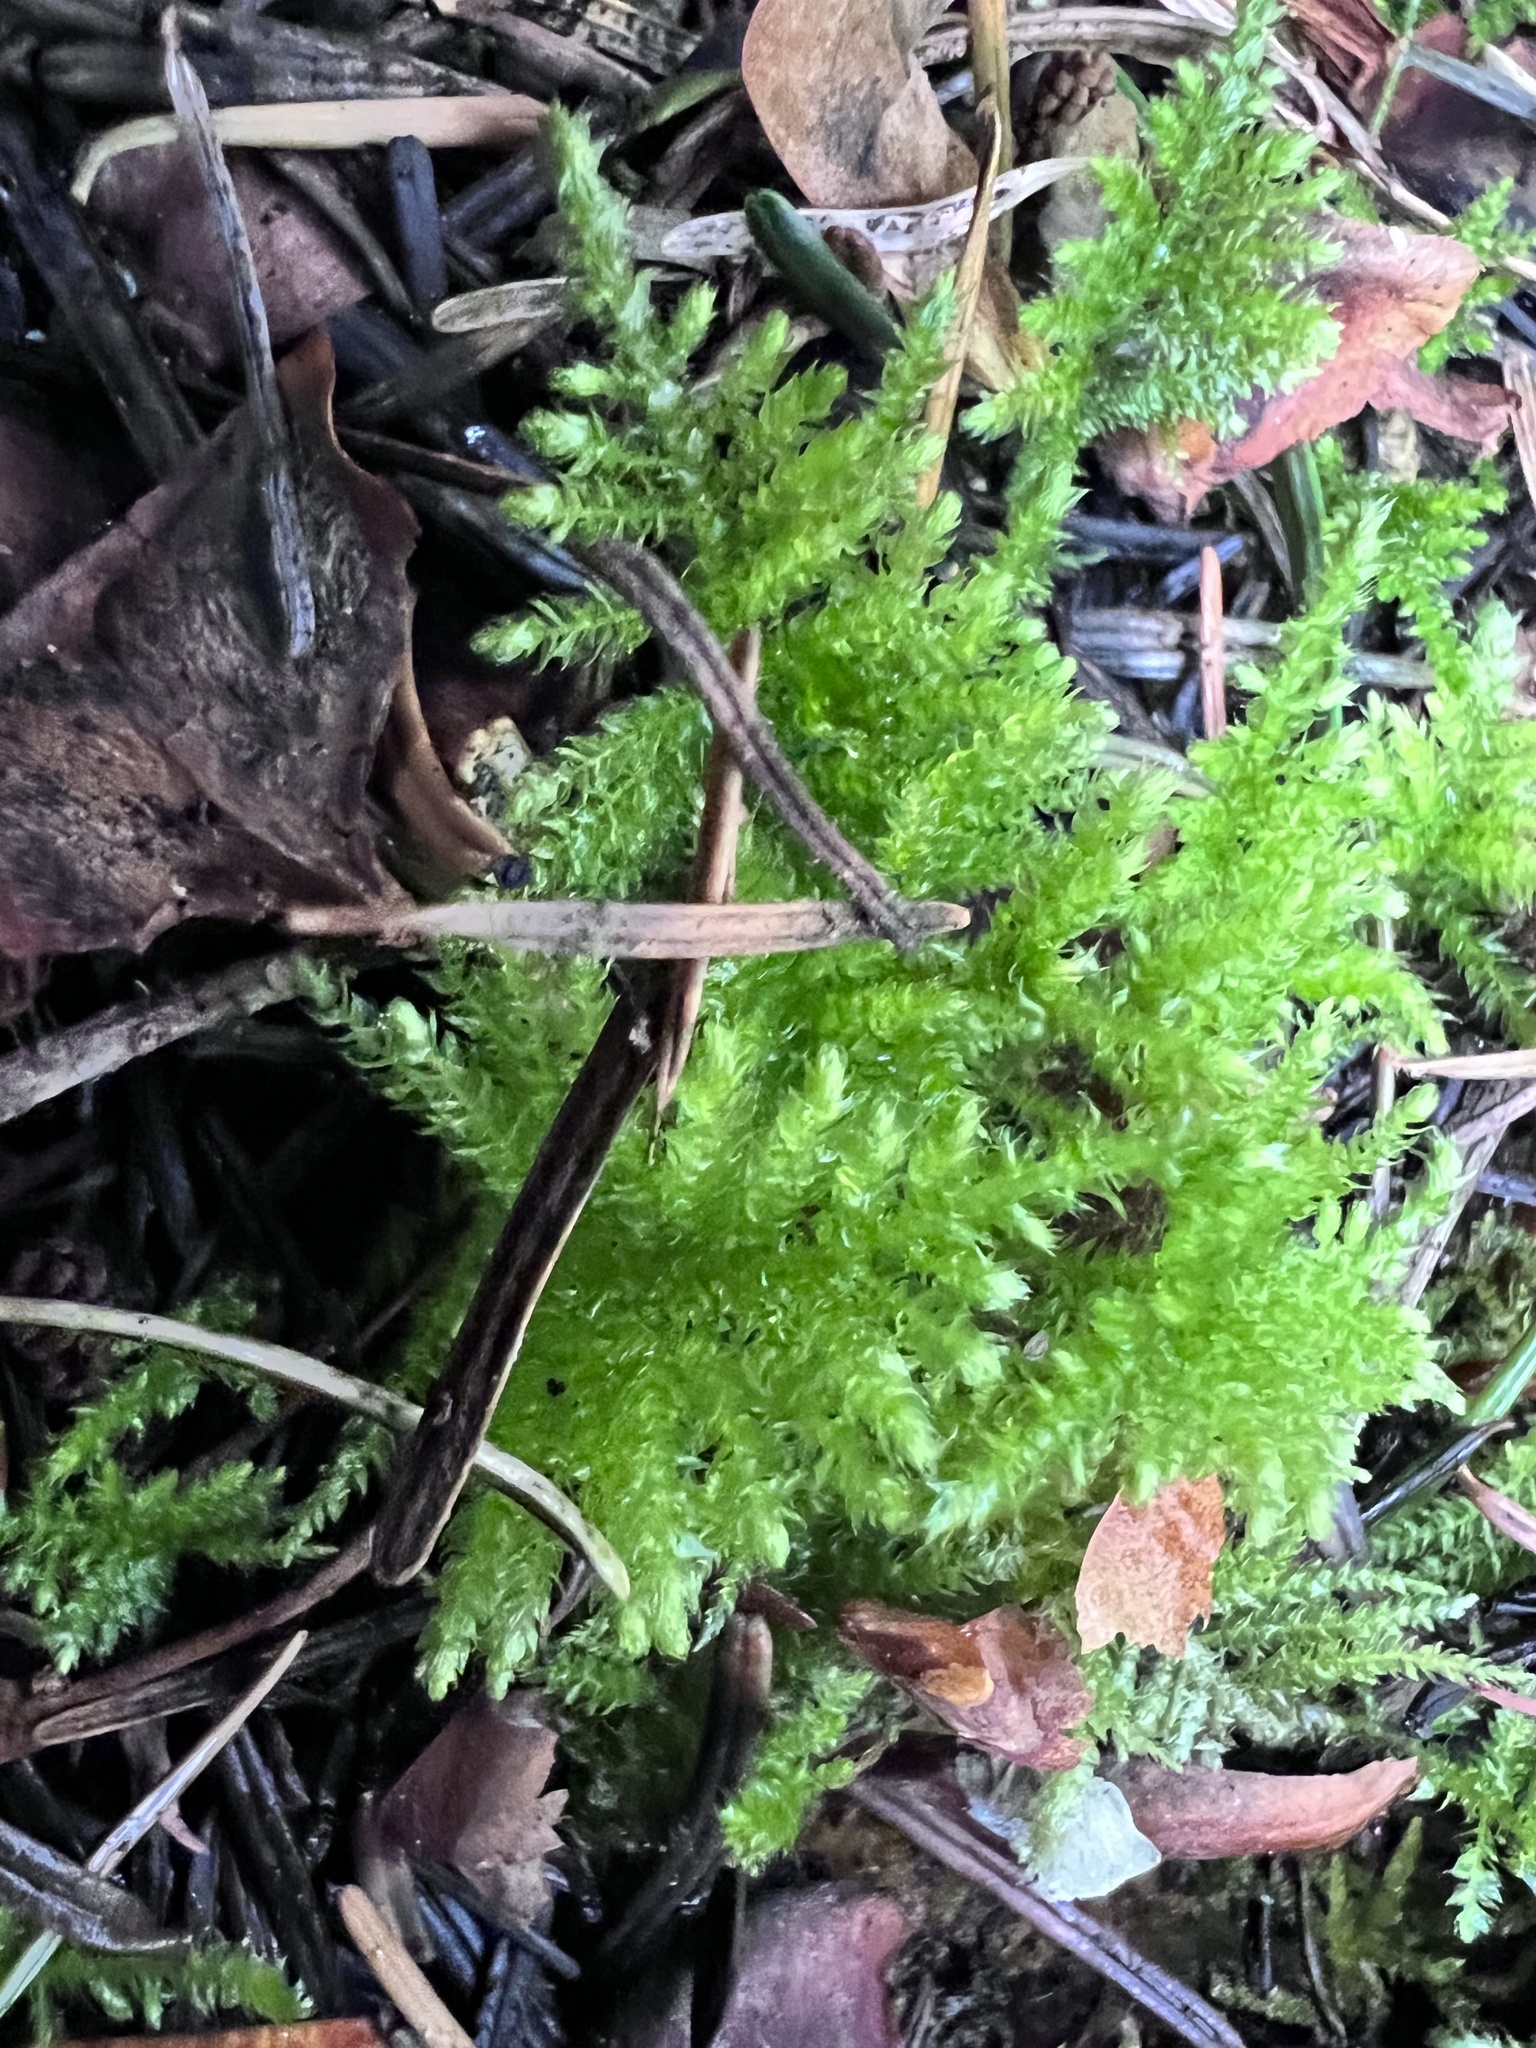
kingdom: Plantae
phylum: Bryophyta
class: Bryopsida
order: Hypnales
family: Brachytheciaceae
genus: Kindbergia
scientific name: Kindbergia oregana
